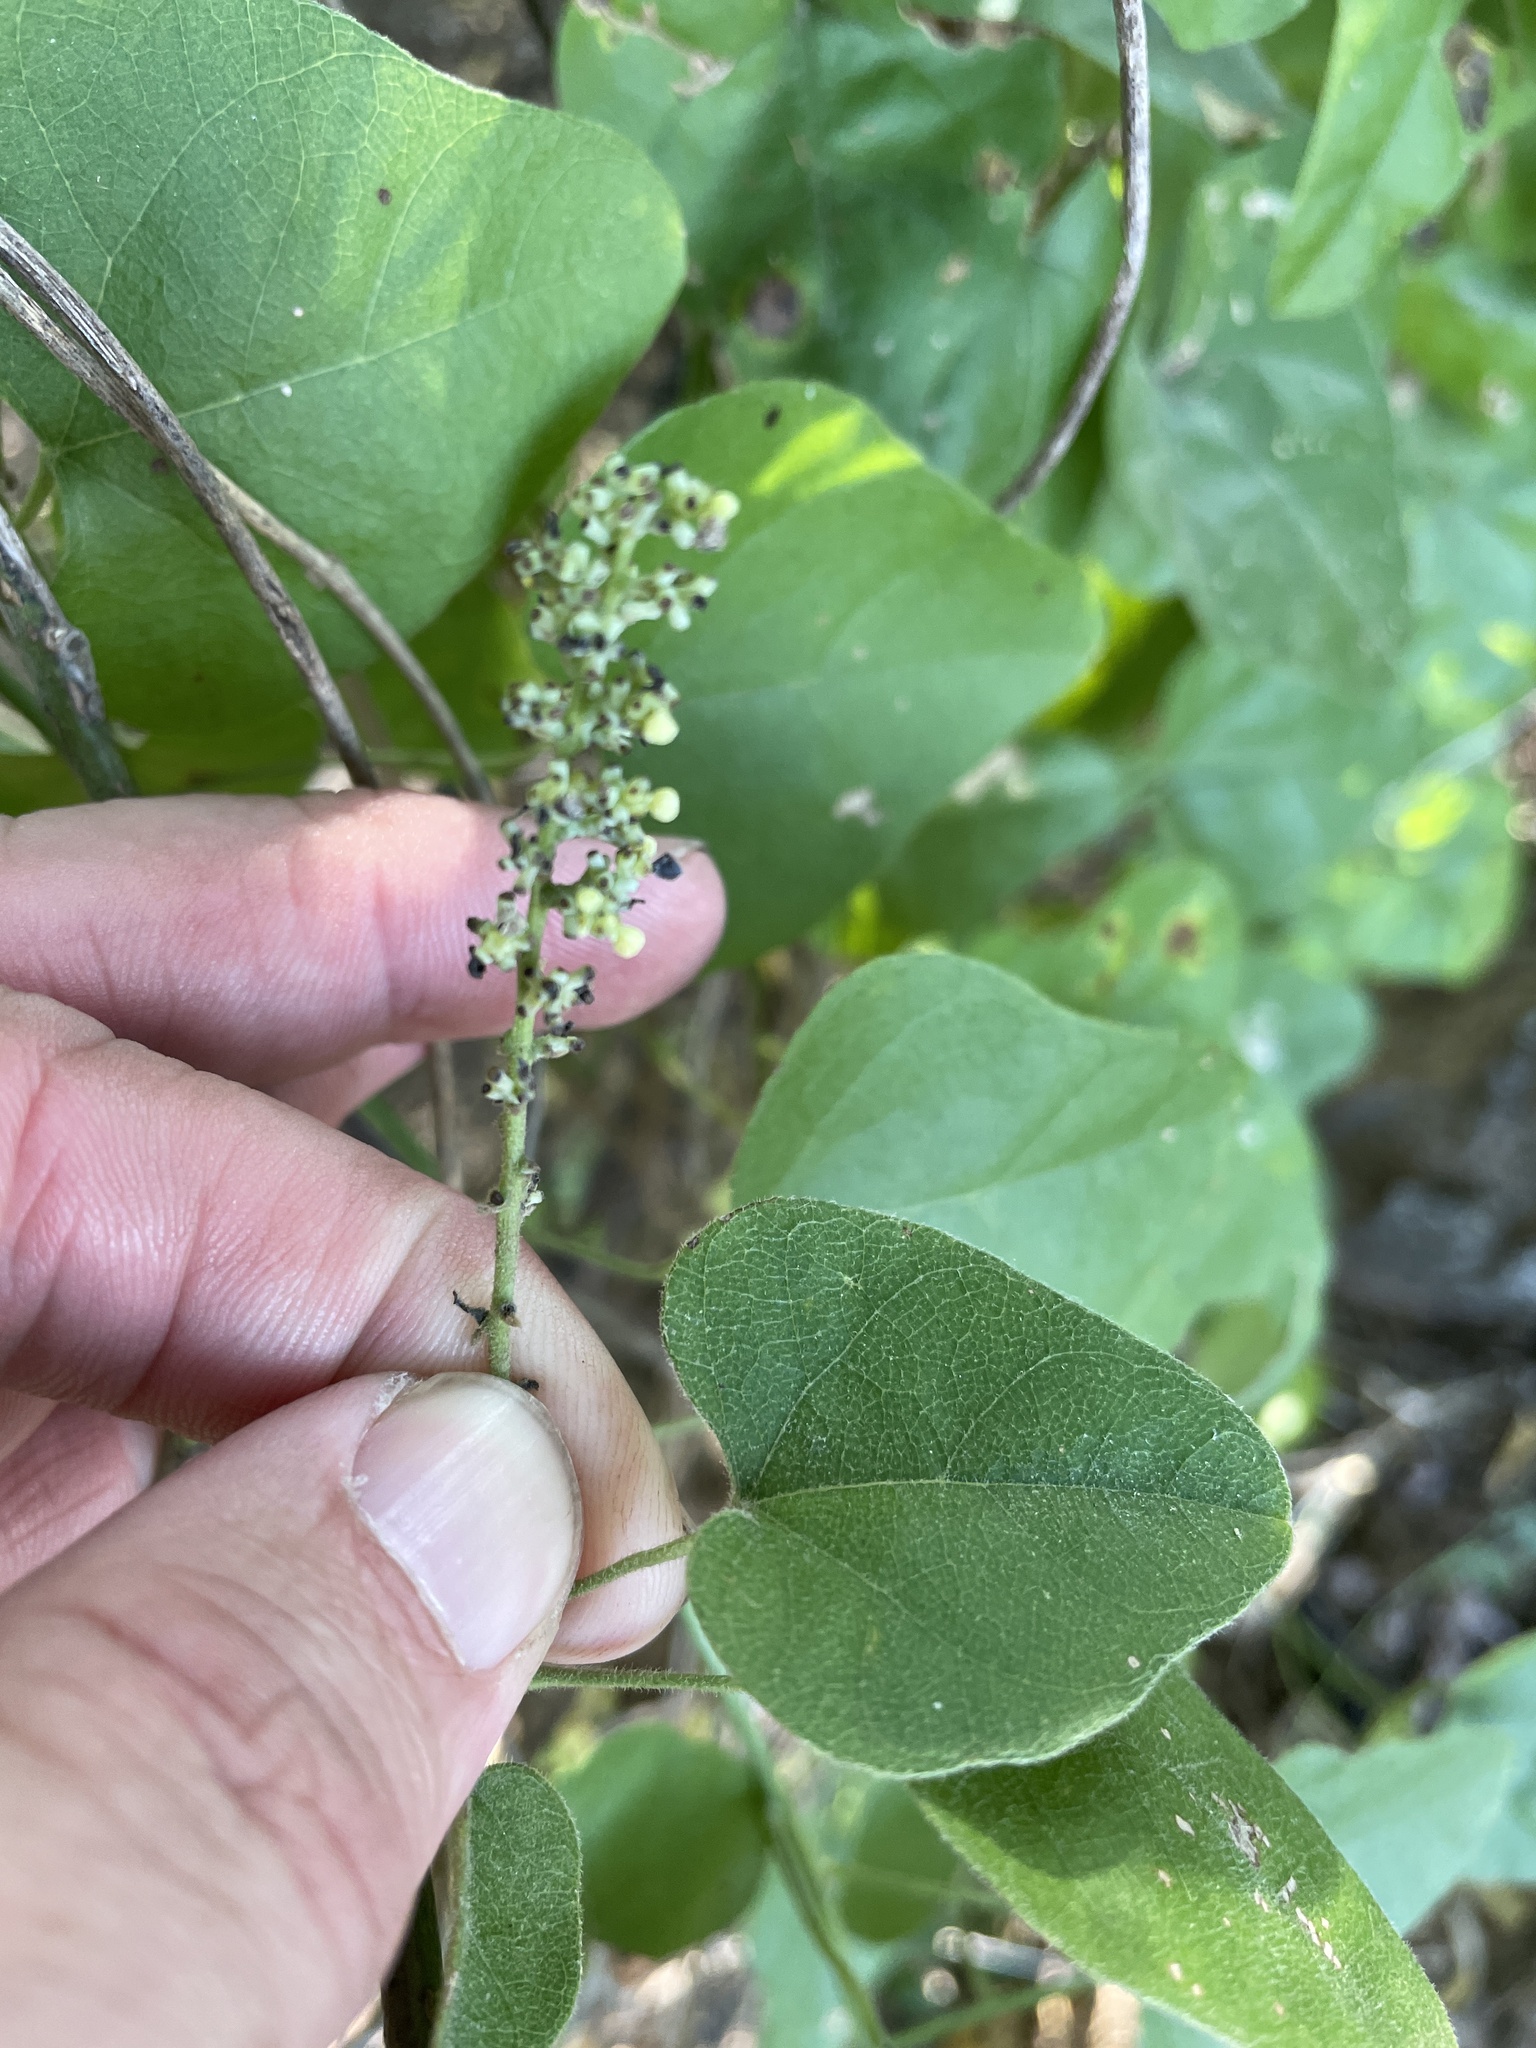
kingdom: Plantae
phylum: Tracheophyta
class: Magnoliopsida
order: Ranunculales
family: Menispermaceae
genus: Cocculus
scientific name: Cocculus carolinus
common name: Carolina moonseed
